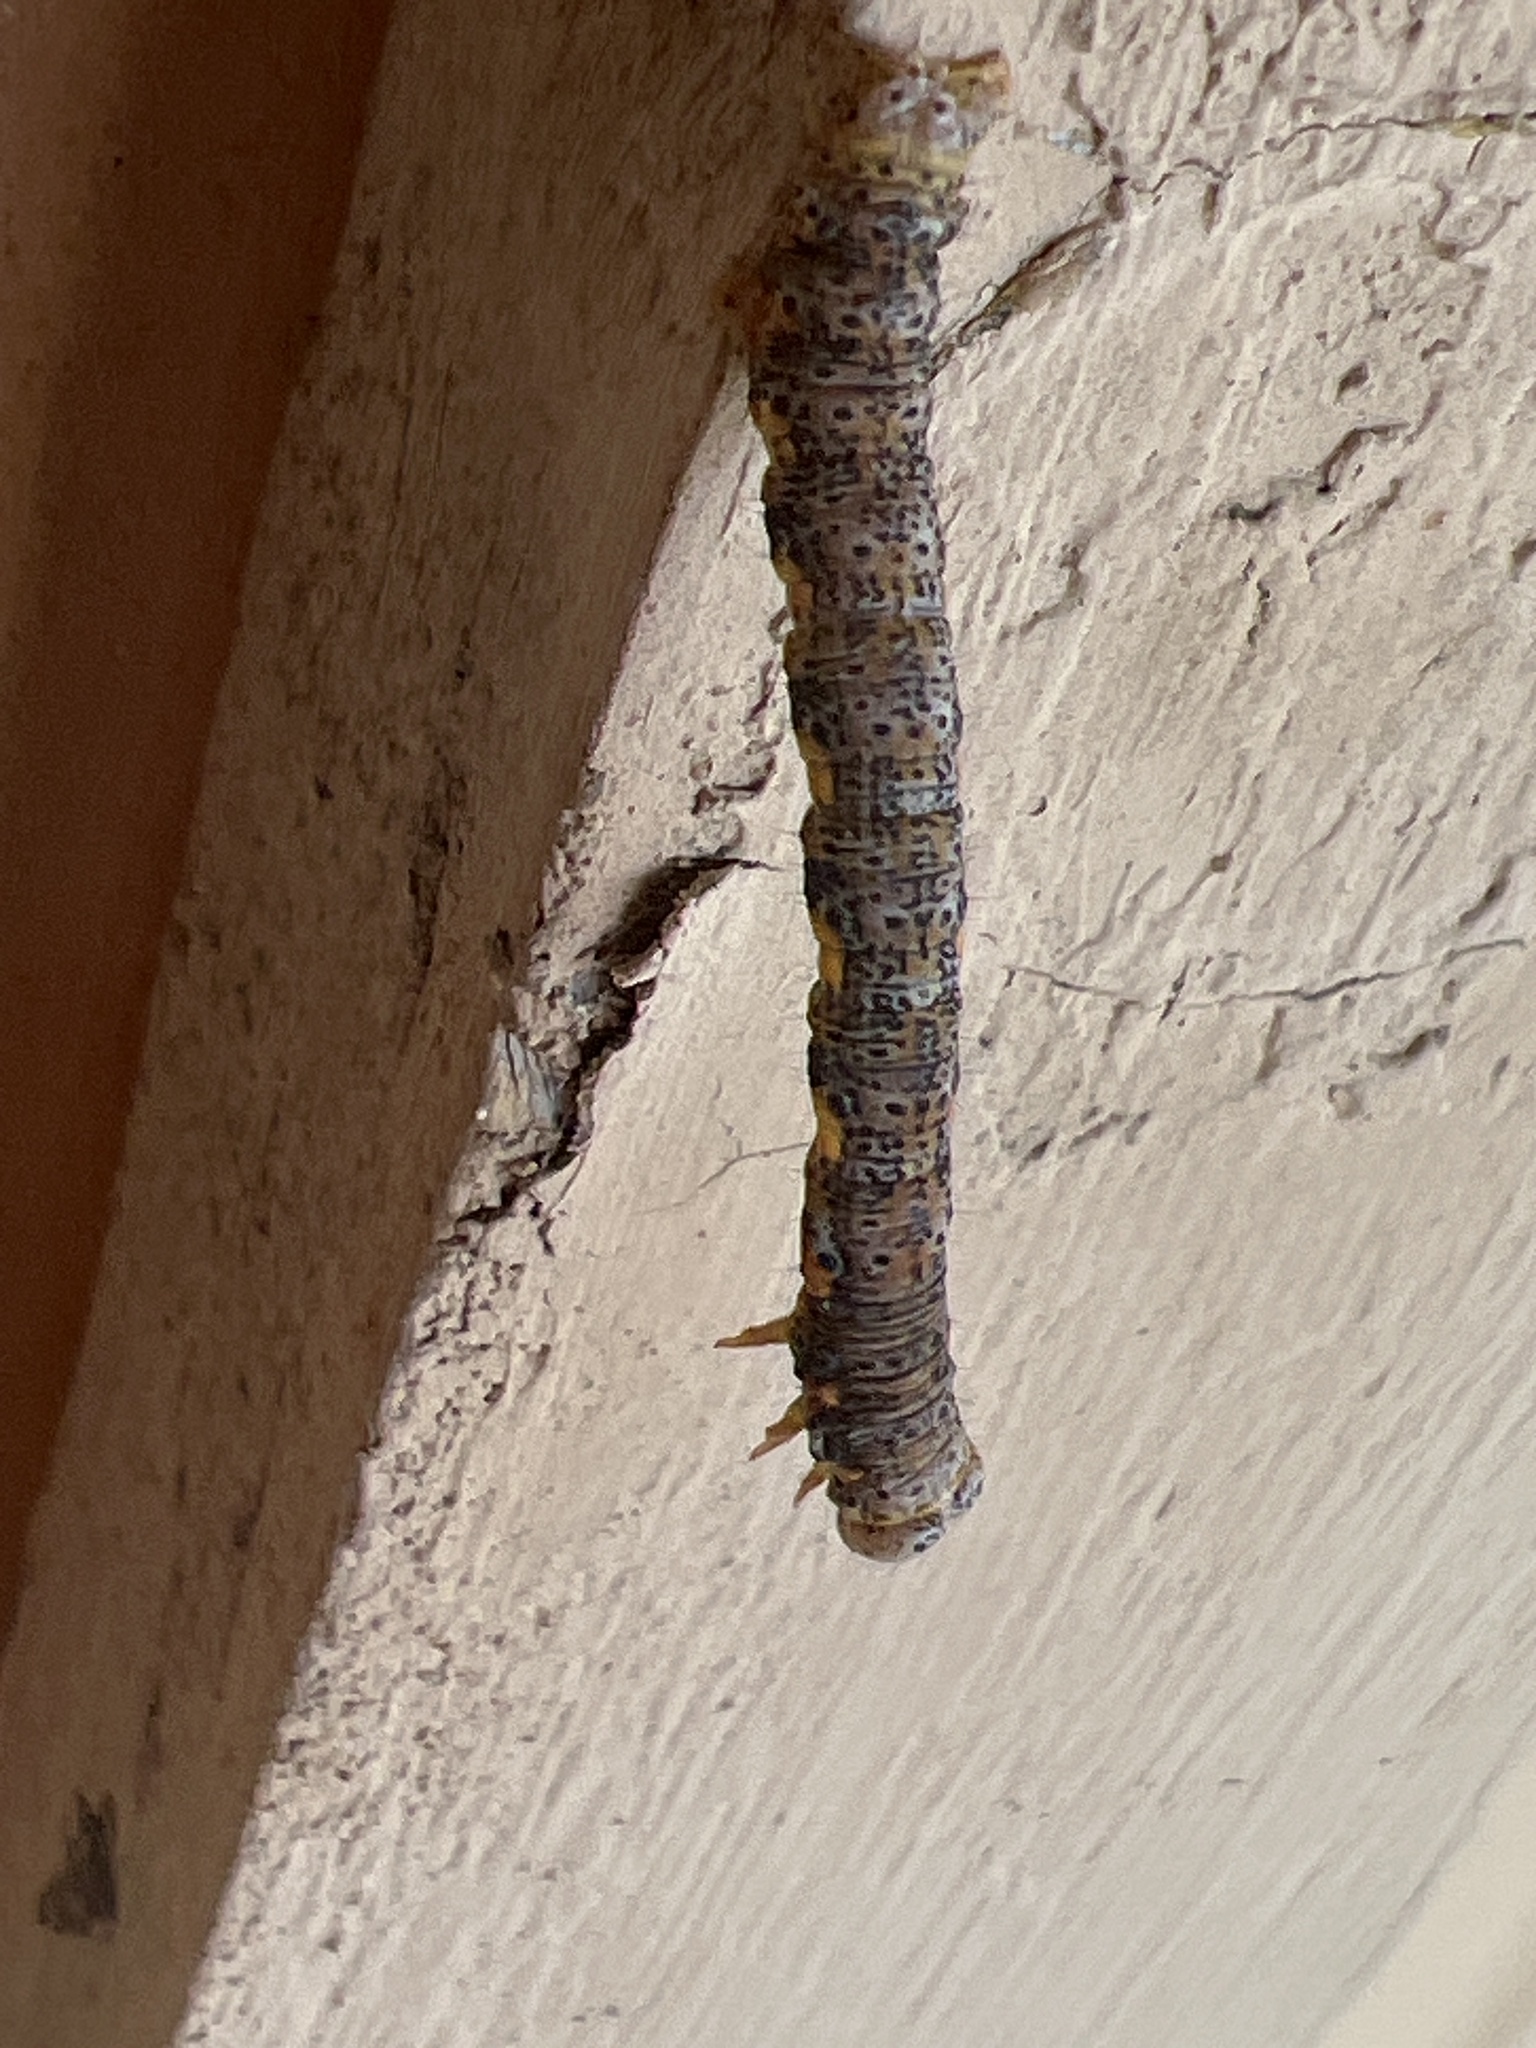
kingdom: Animalia
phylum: Arthropoda
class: Insecta
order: Lepidoptera
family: Geometridae
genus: Isturgia
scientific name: Isturgia dislocaria
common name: Pale-viened enconista
